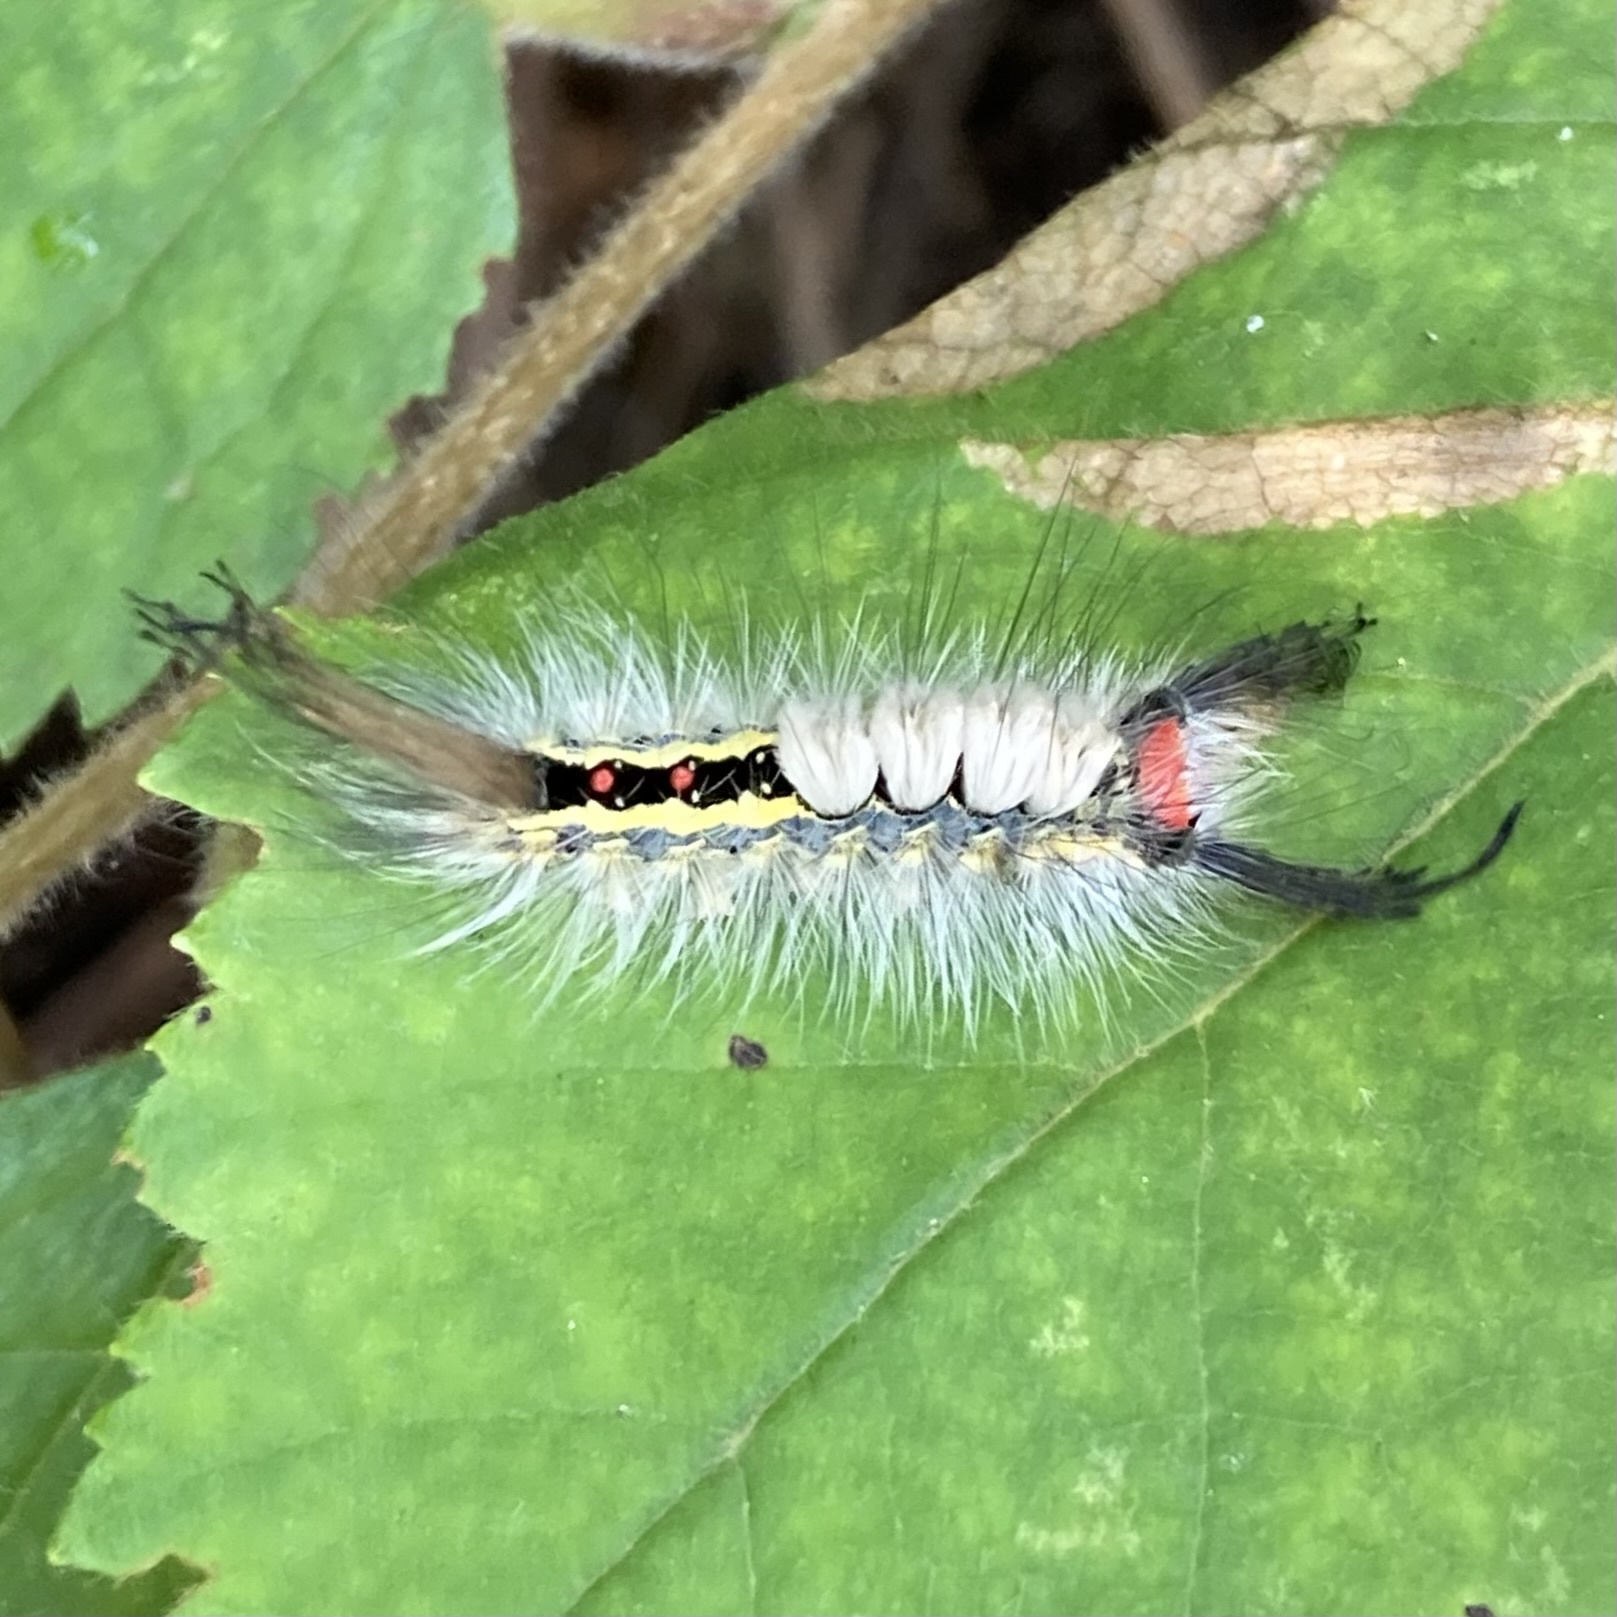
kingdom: Animalia
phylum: Arthropoda
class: Insecta
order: Lepidoptera
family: Erebidae
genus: Orgyia
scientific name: Orgyia leucostigma
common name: White-marked tussock moth
